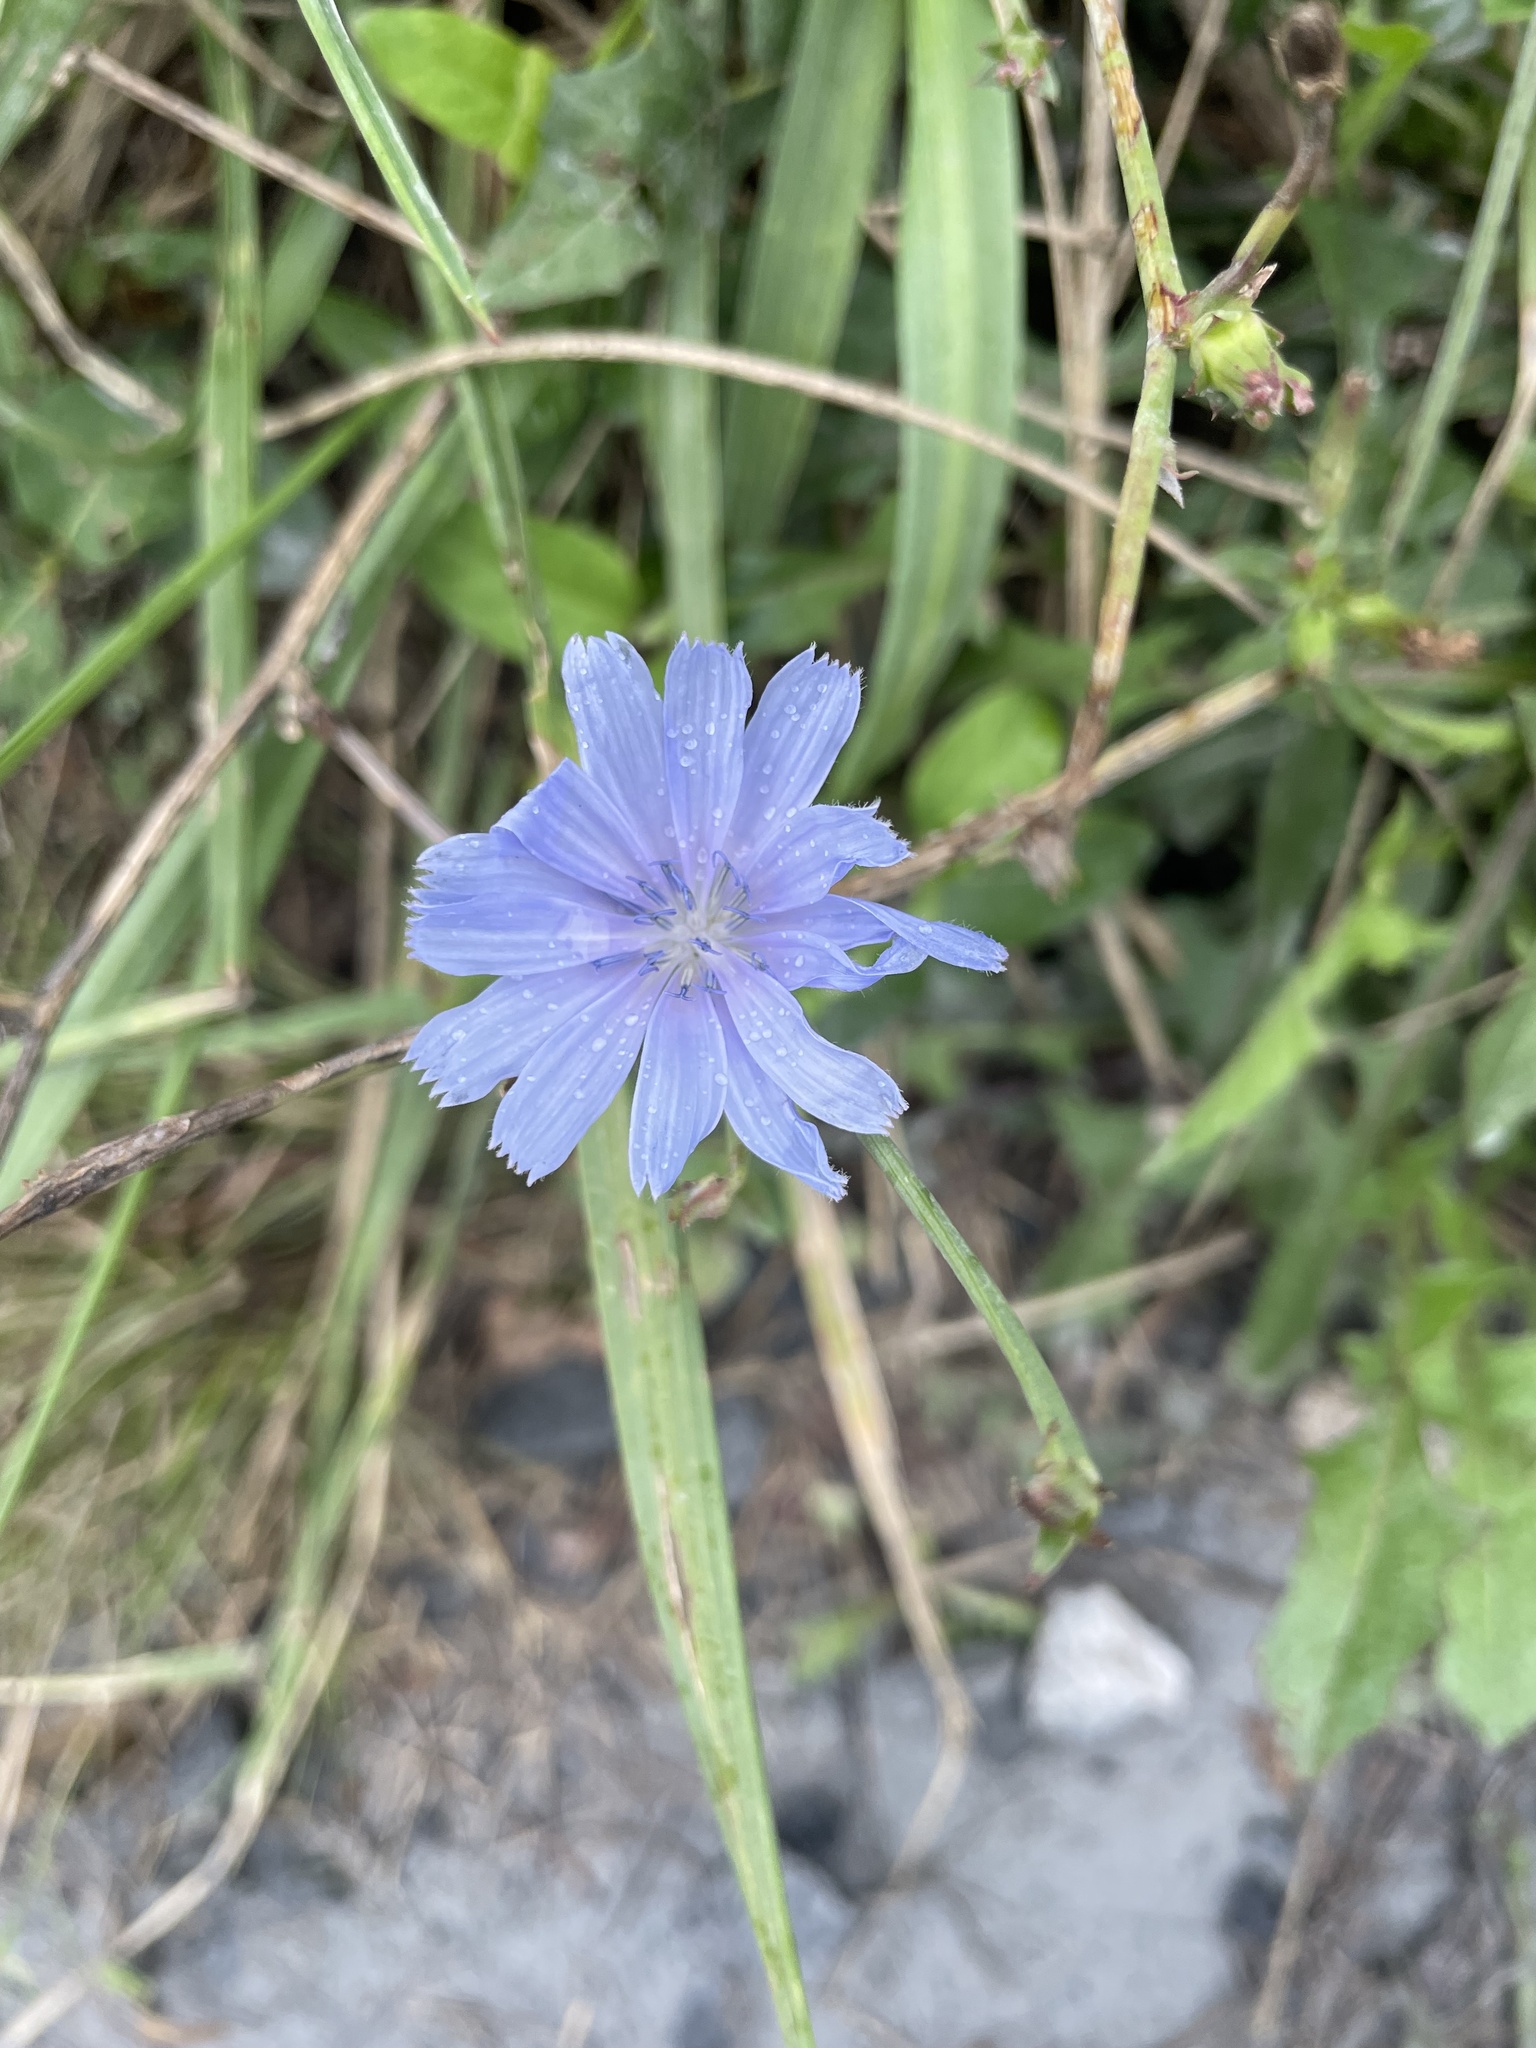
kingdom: Plantae
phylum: Tracheophyta
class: Magnoliopsida
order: Asterales
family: Asteraceae
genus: Cichorium
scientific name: Cichorium intybus
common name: Chicory
